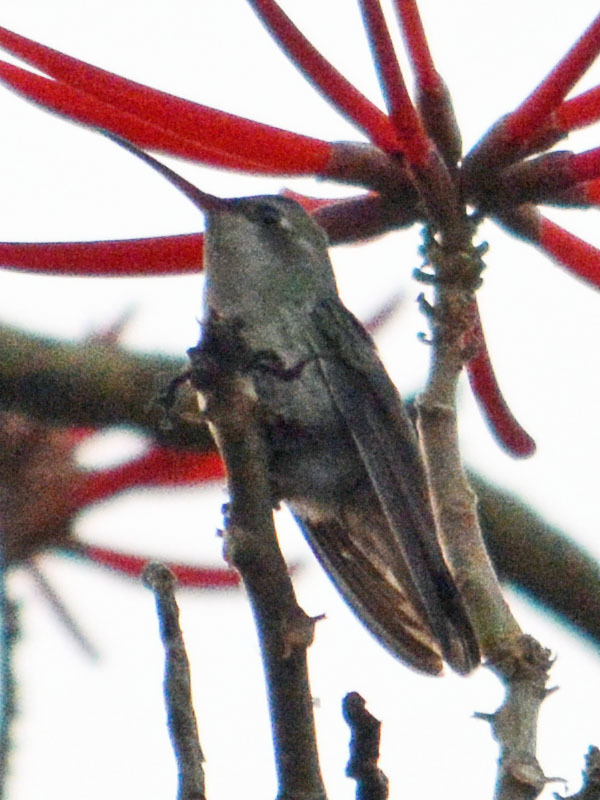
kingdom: Animalia
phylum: Chordata
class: Aves
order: Apodiformes
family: Trochilidae
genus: Cynanthus
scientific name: Cynanthus latirostris
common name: Broad-billed hummingbird
